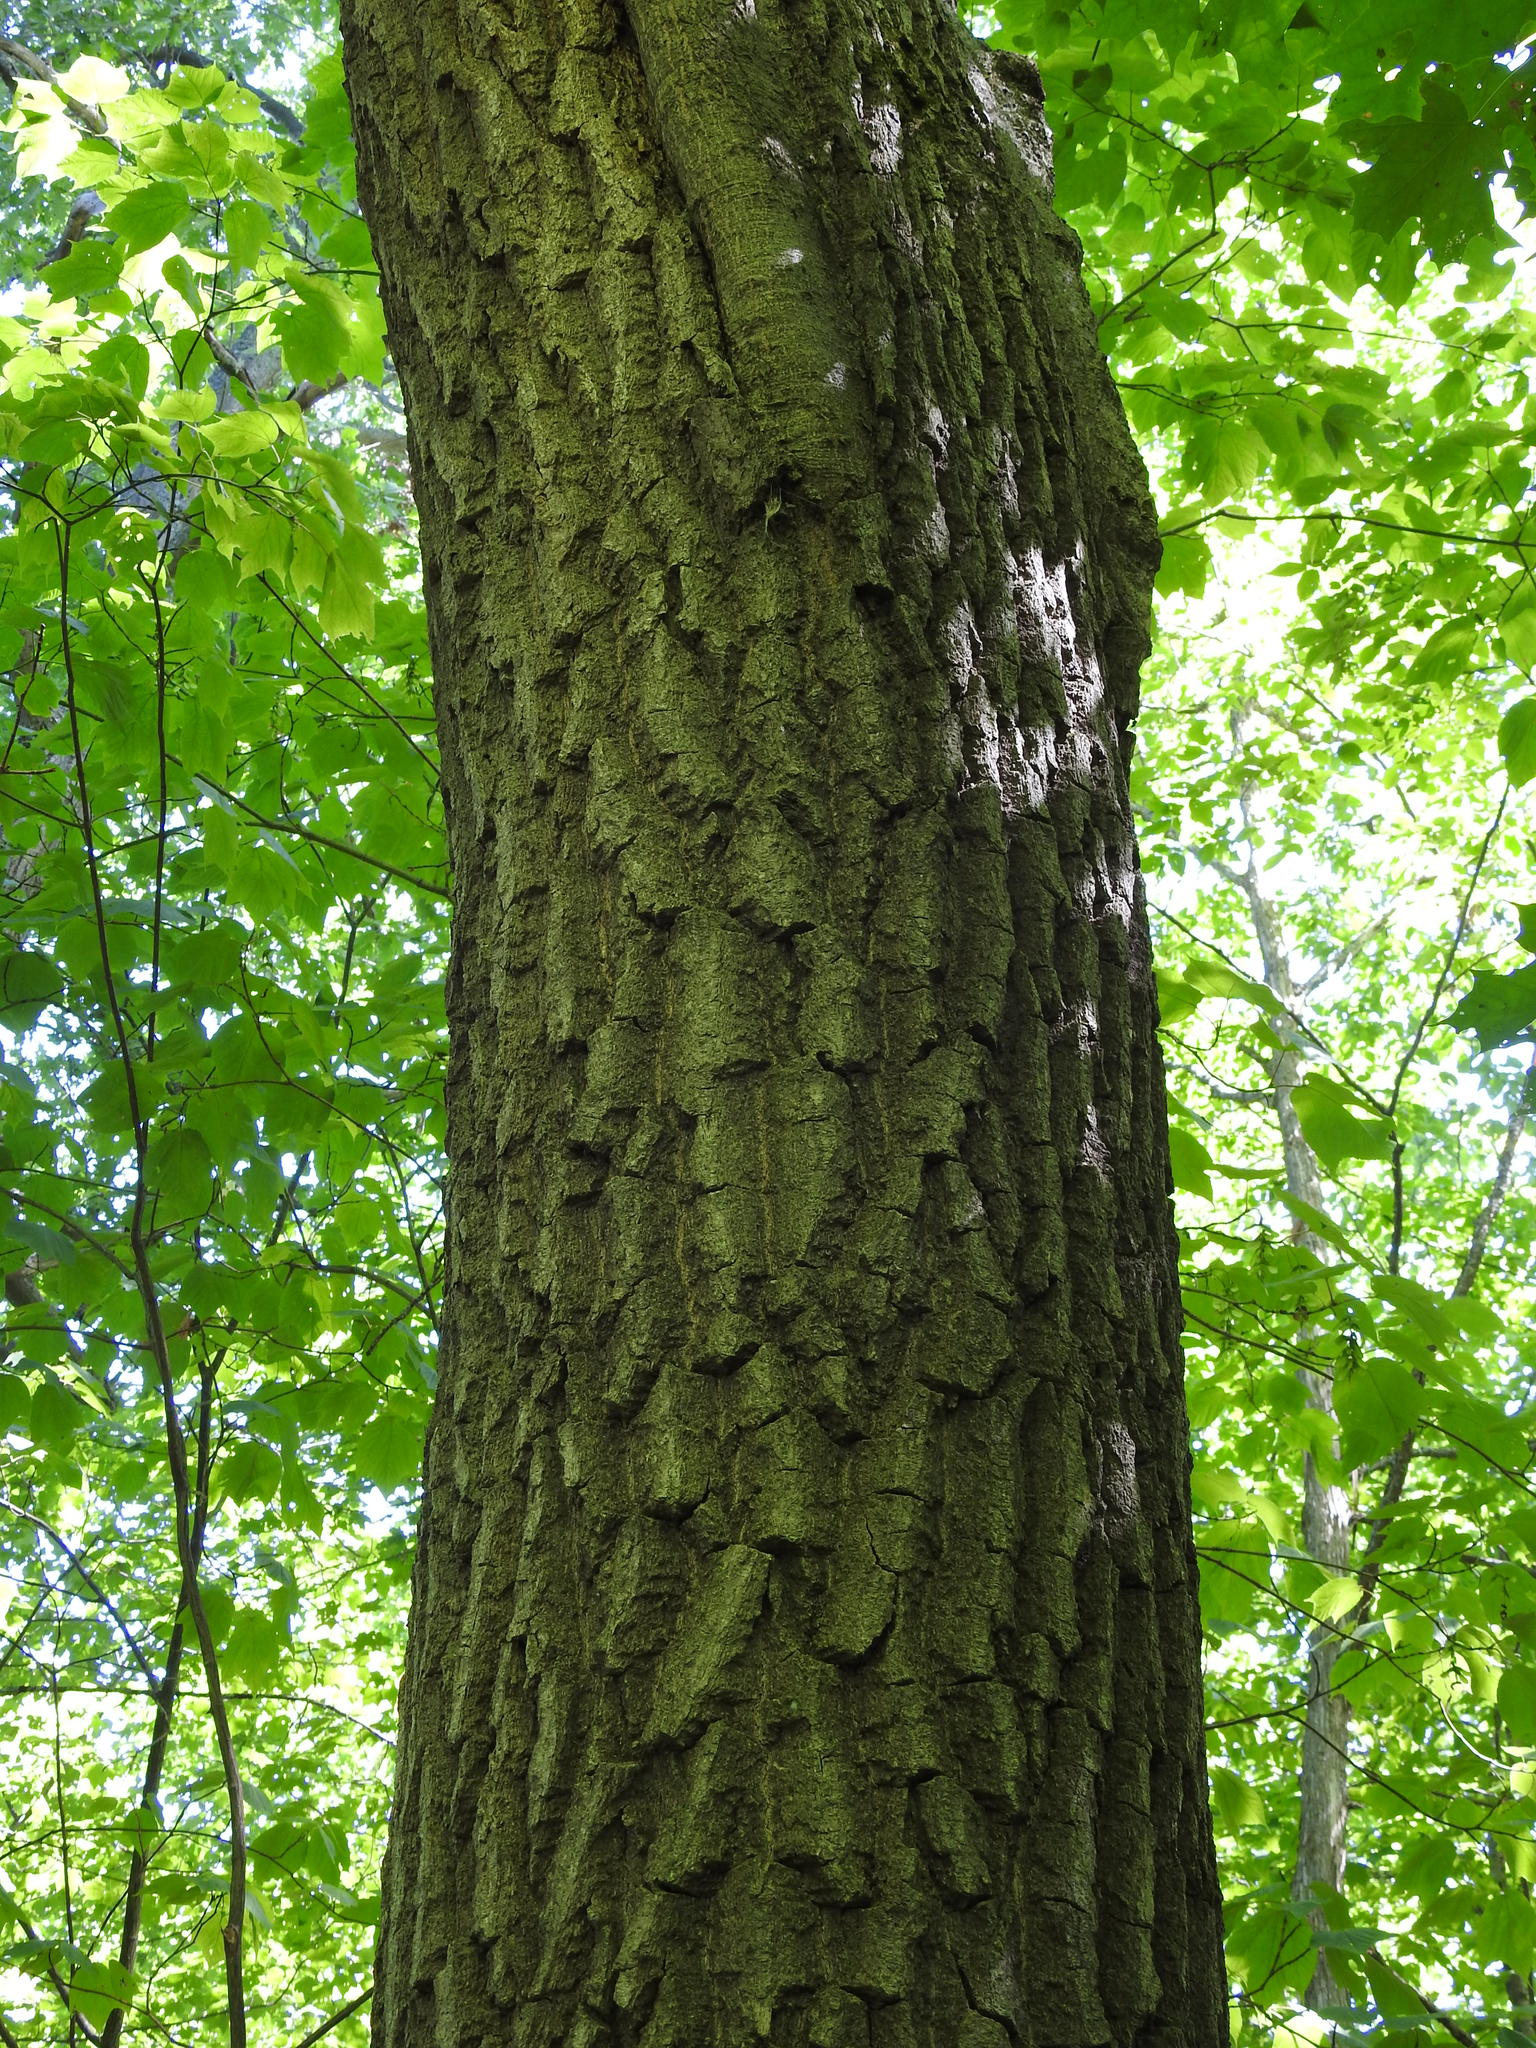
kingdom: Plantae
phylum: Tracheophyta
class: Magnoliopsida
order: Fagales
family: Fagaceae
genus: Quercus
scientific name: Quercus rubra
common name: Red oak
